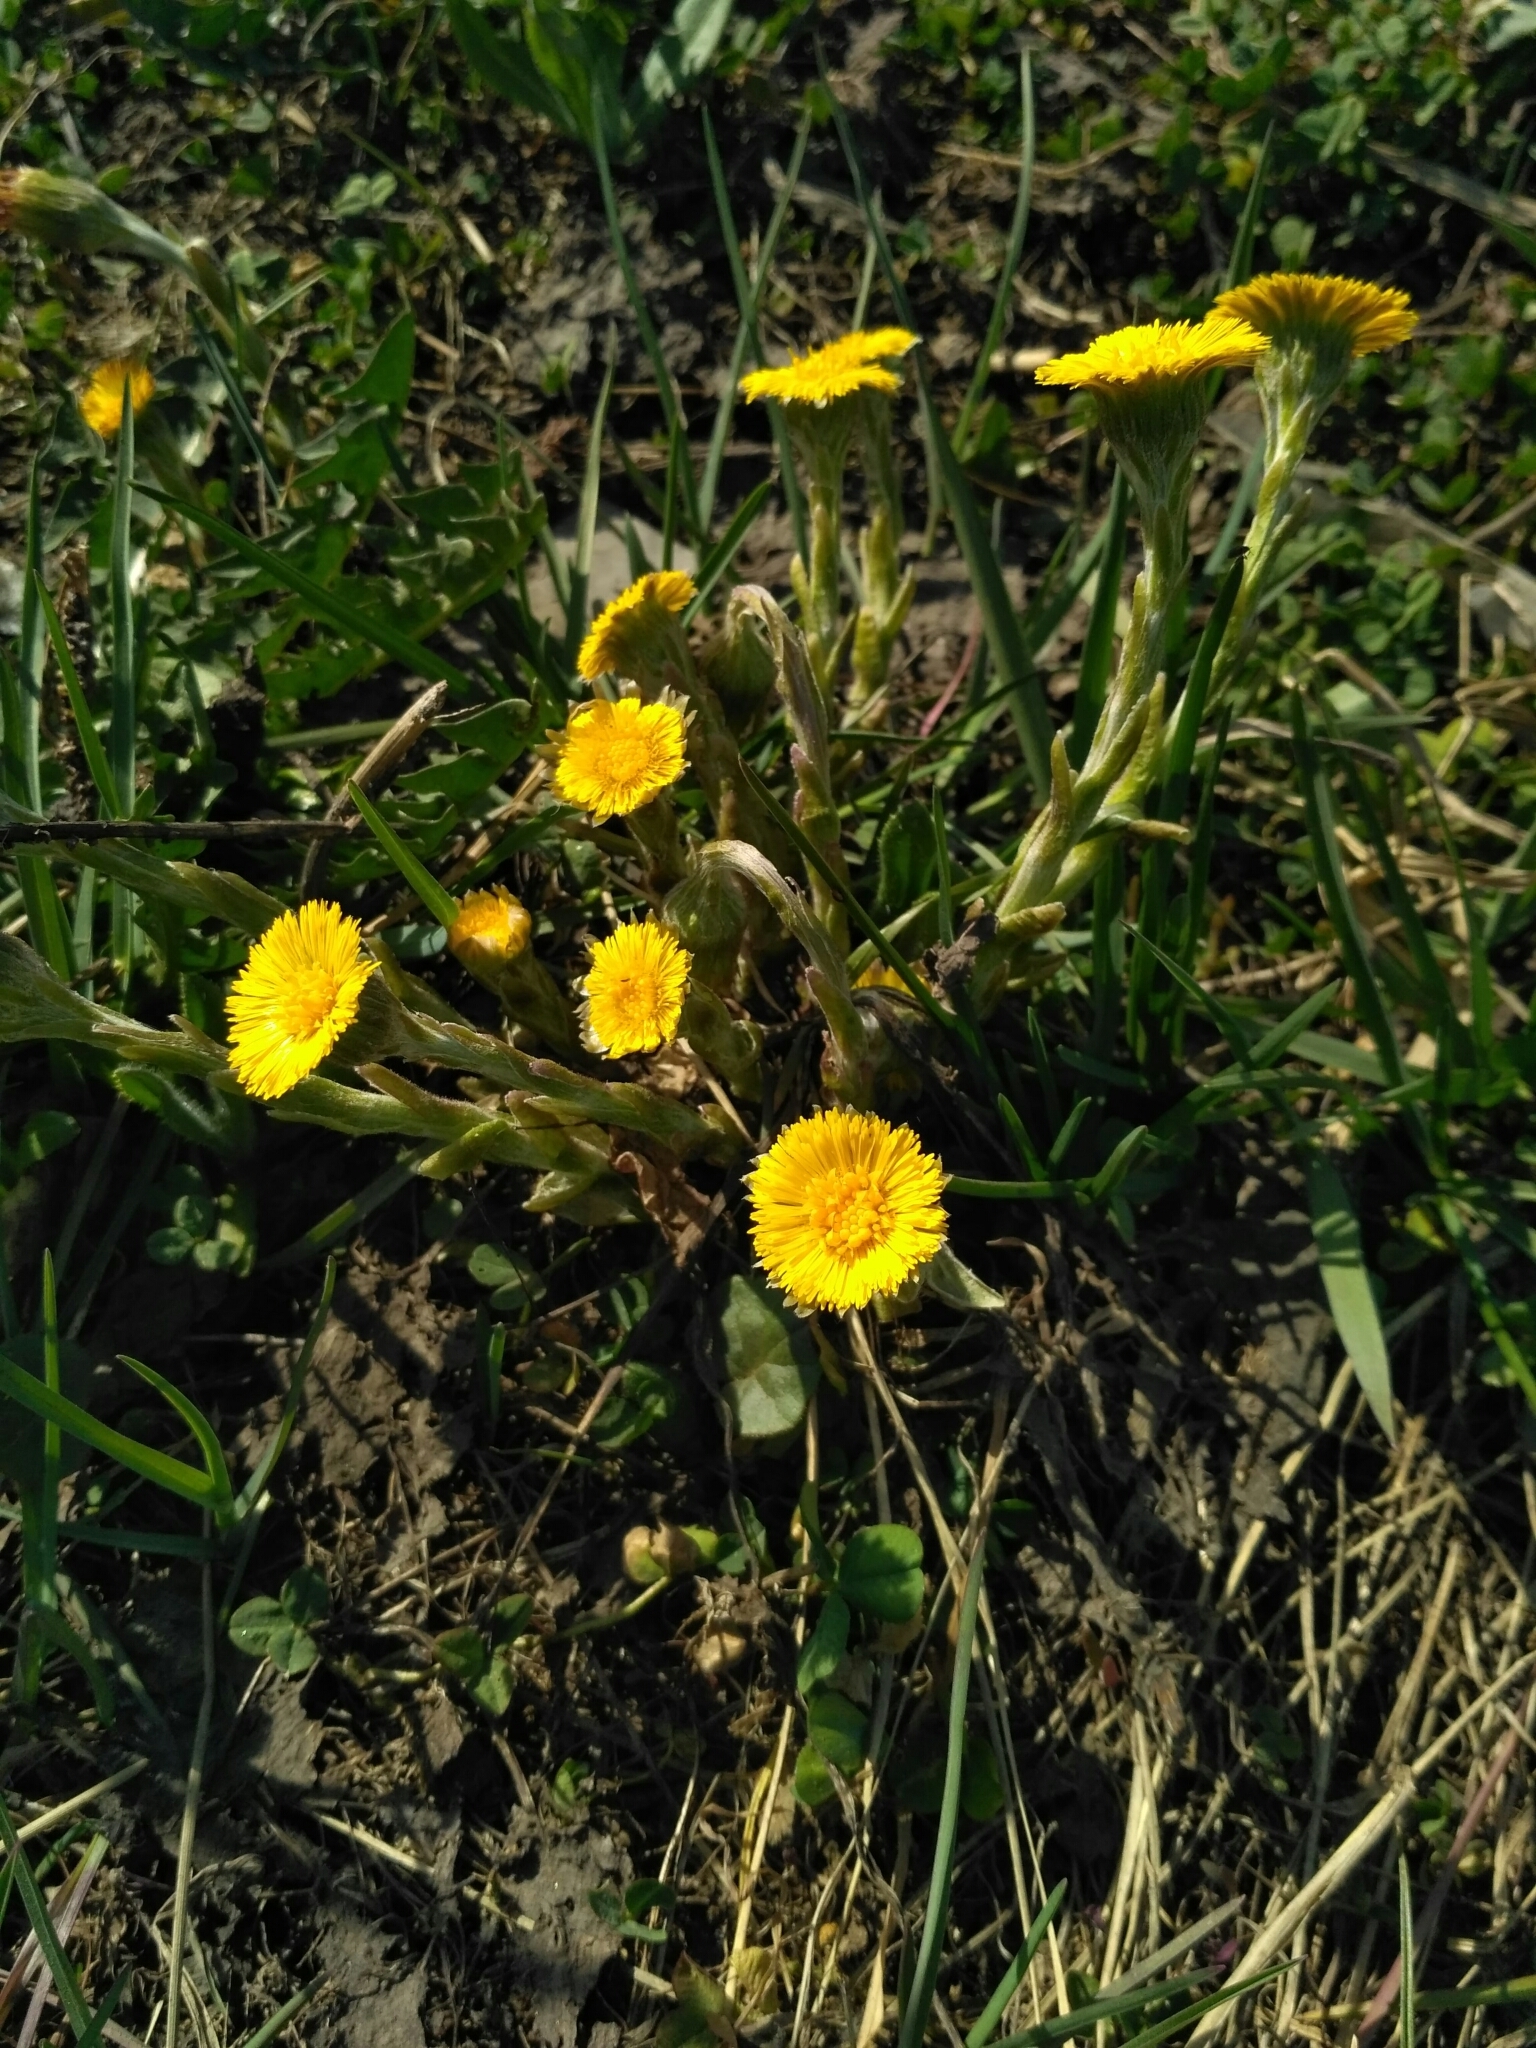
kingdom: Plantae
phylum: Tracheophyta
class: Magnoliopsida
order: Asterales
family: Asteraceae
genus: Tussilago
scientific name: Tussilago farfara
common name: Coltsfoot
